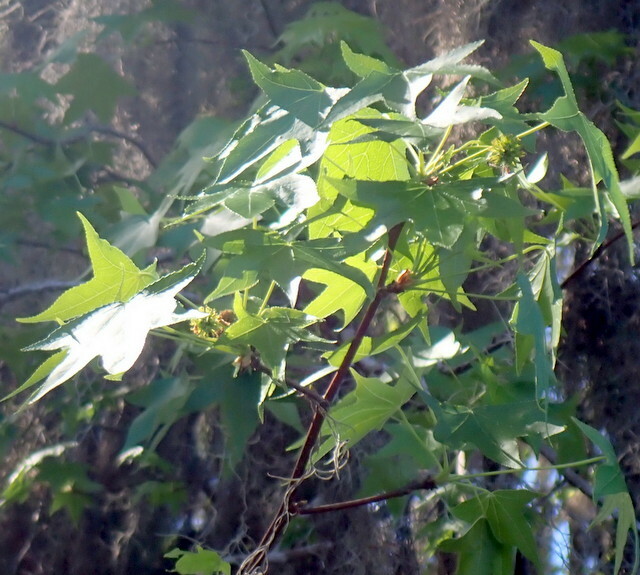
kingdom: Plantae
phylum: Tracheophyta
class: Magnoliopsida
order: Saxifragales
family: Altingiaceae
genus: Liquidambar
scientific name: Liquidambar styraciflua
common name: Sweet gum
